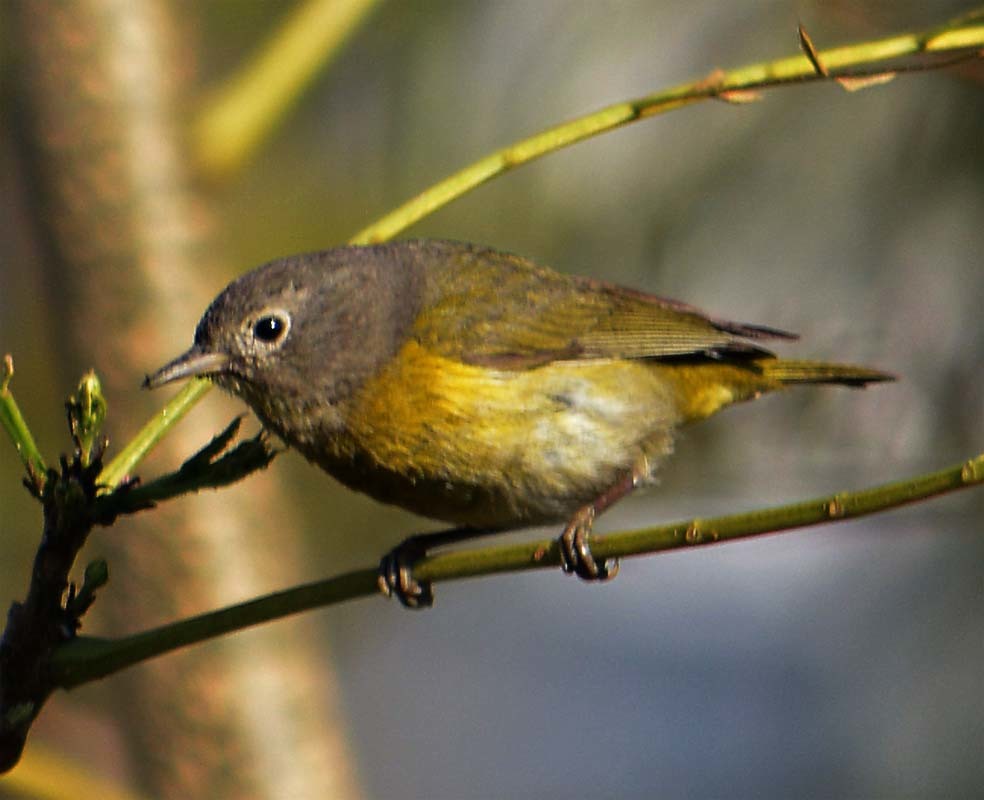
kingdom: Animalia
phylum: Chordata
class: Aves
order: Passeriformes
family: Parulidae
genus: Leiothlypis
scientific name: Leiothlypis ruficapilla
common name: Nashville warbler
